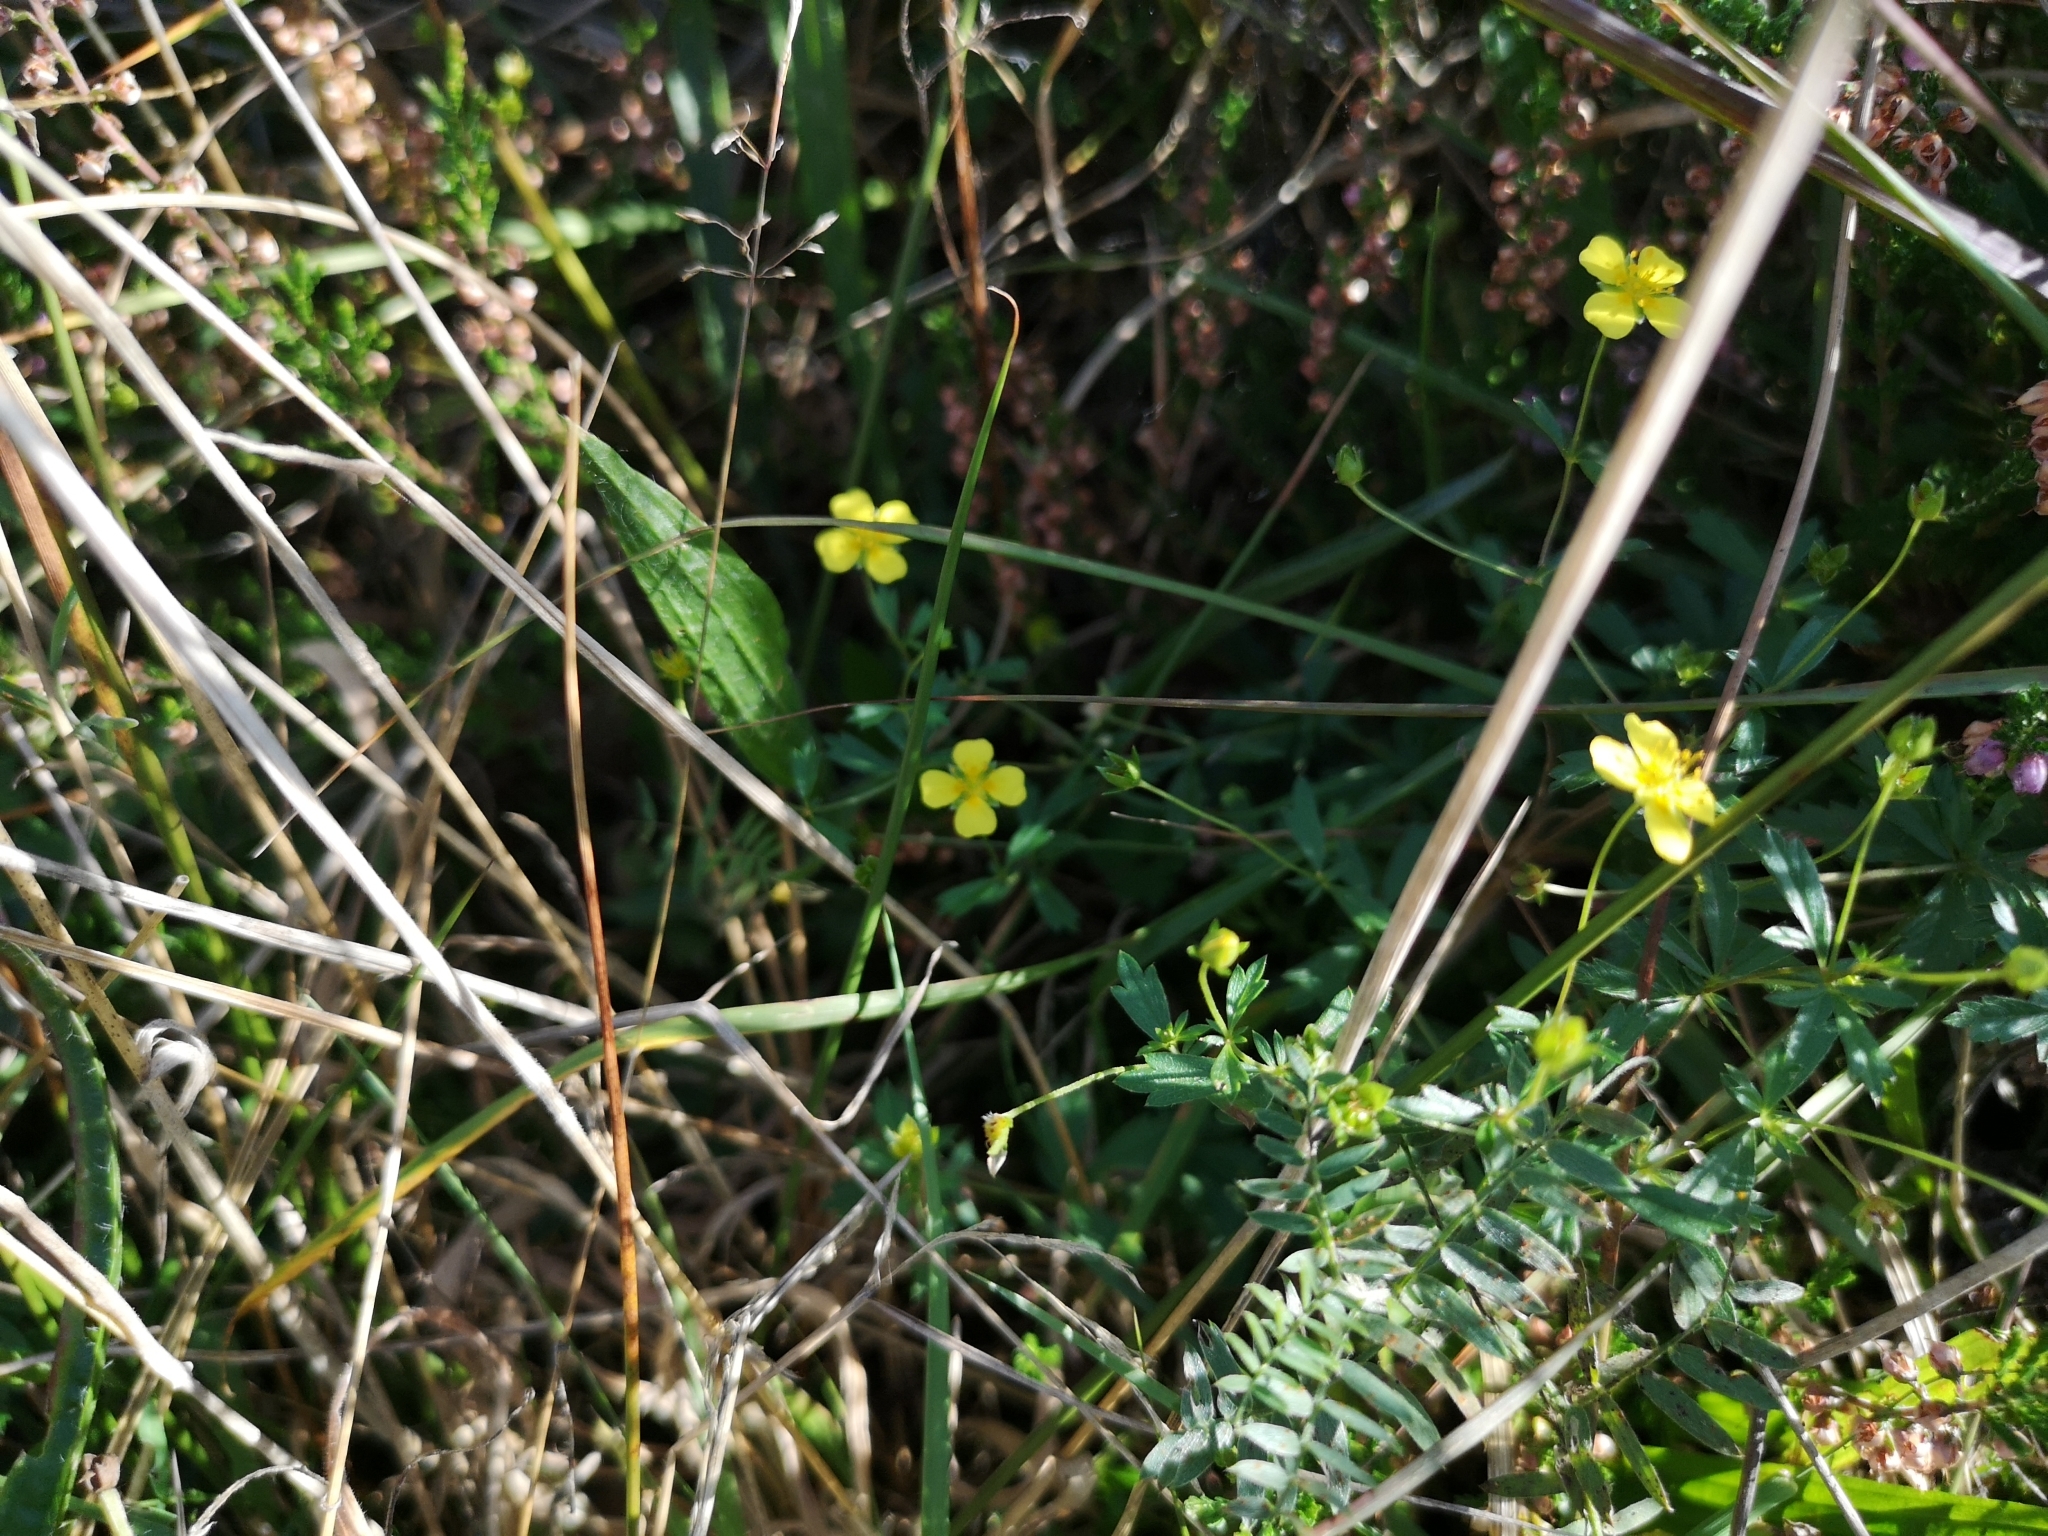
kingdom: Plantae
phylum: Tracheophyta
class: Magnoliopsida
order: Rosales
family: Rosaceae
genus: Potentilla
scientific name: Potentilla erecta
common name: Tormentil
